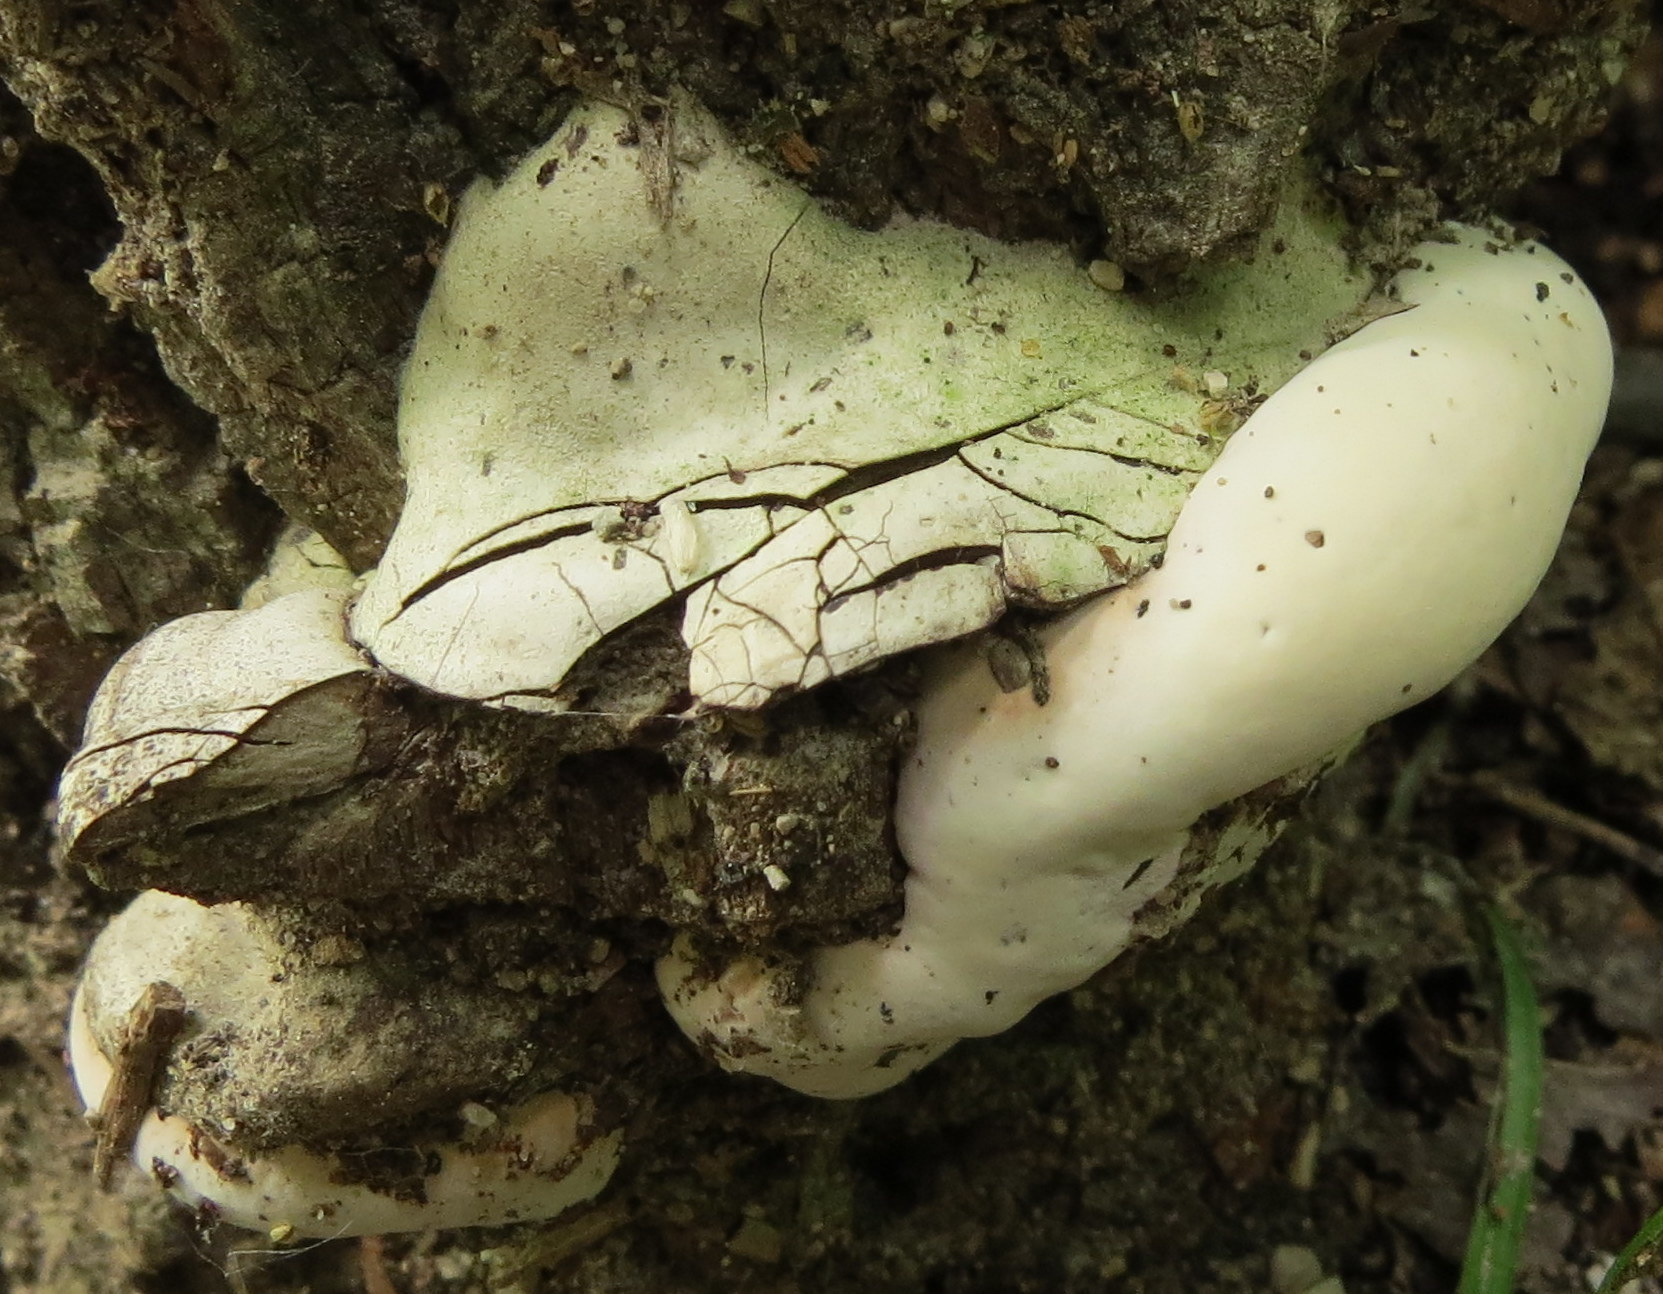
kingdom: Fungi
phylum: Basidiomycota
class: Agaricomycetes
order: Polyporales
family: Polyporaceae
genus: Ganoderma
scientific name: Ganoderma applanatum
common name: Artist's bracket
